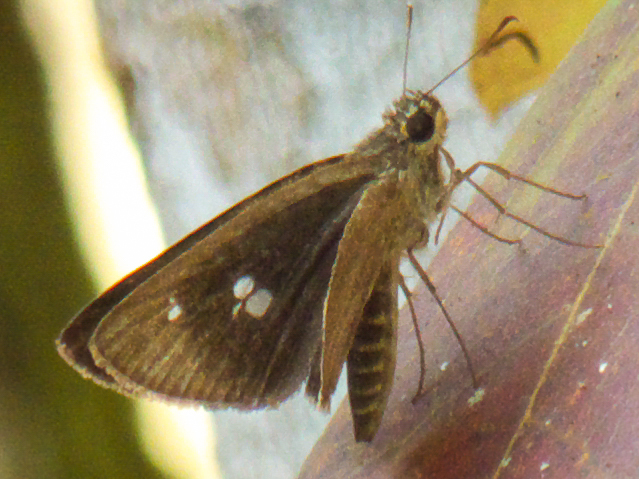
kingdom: Animalia
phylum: Arthropoda
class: Insecta
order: Lepidoptera
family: Hesperiidae
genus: Suada
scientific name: Suada swerga
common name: Grass bob
